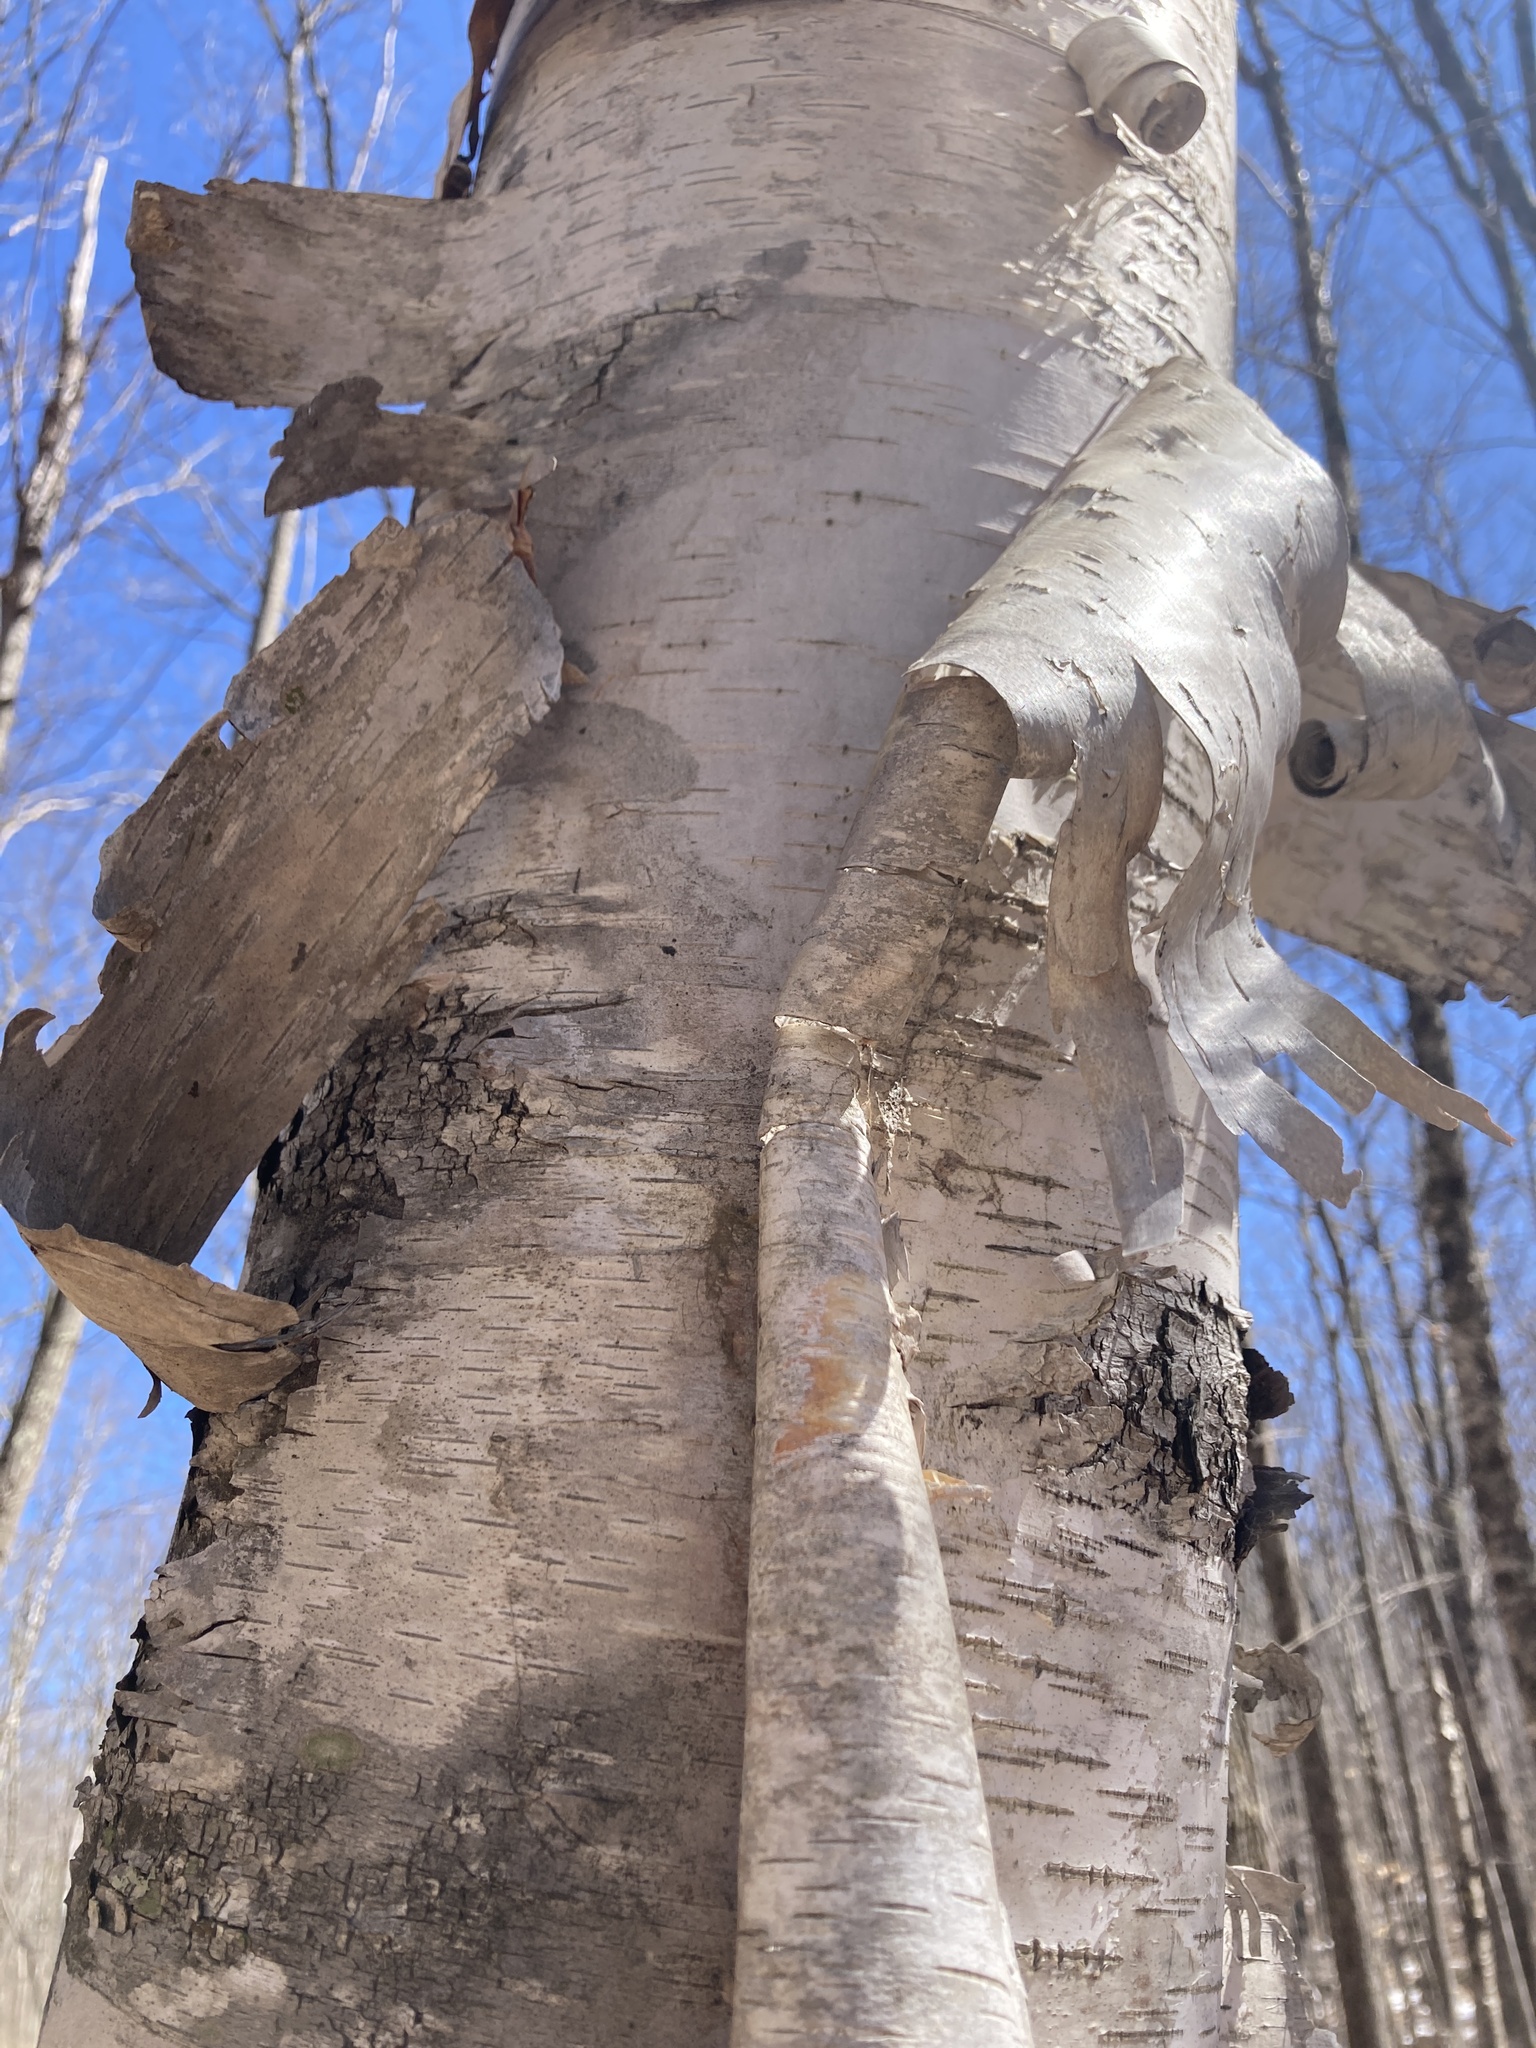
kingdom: Plantae
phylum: Tracheophyta
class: Magnoliopsida
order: Fagales
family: Betulaceae
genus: Betula
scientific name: Betula papyrifera
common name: Paper birch
